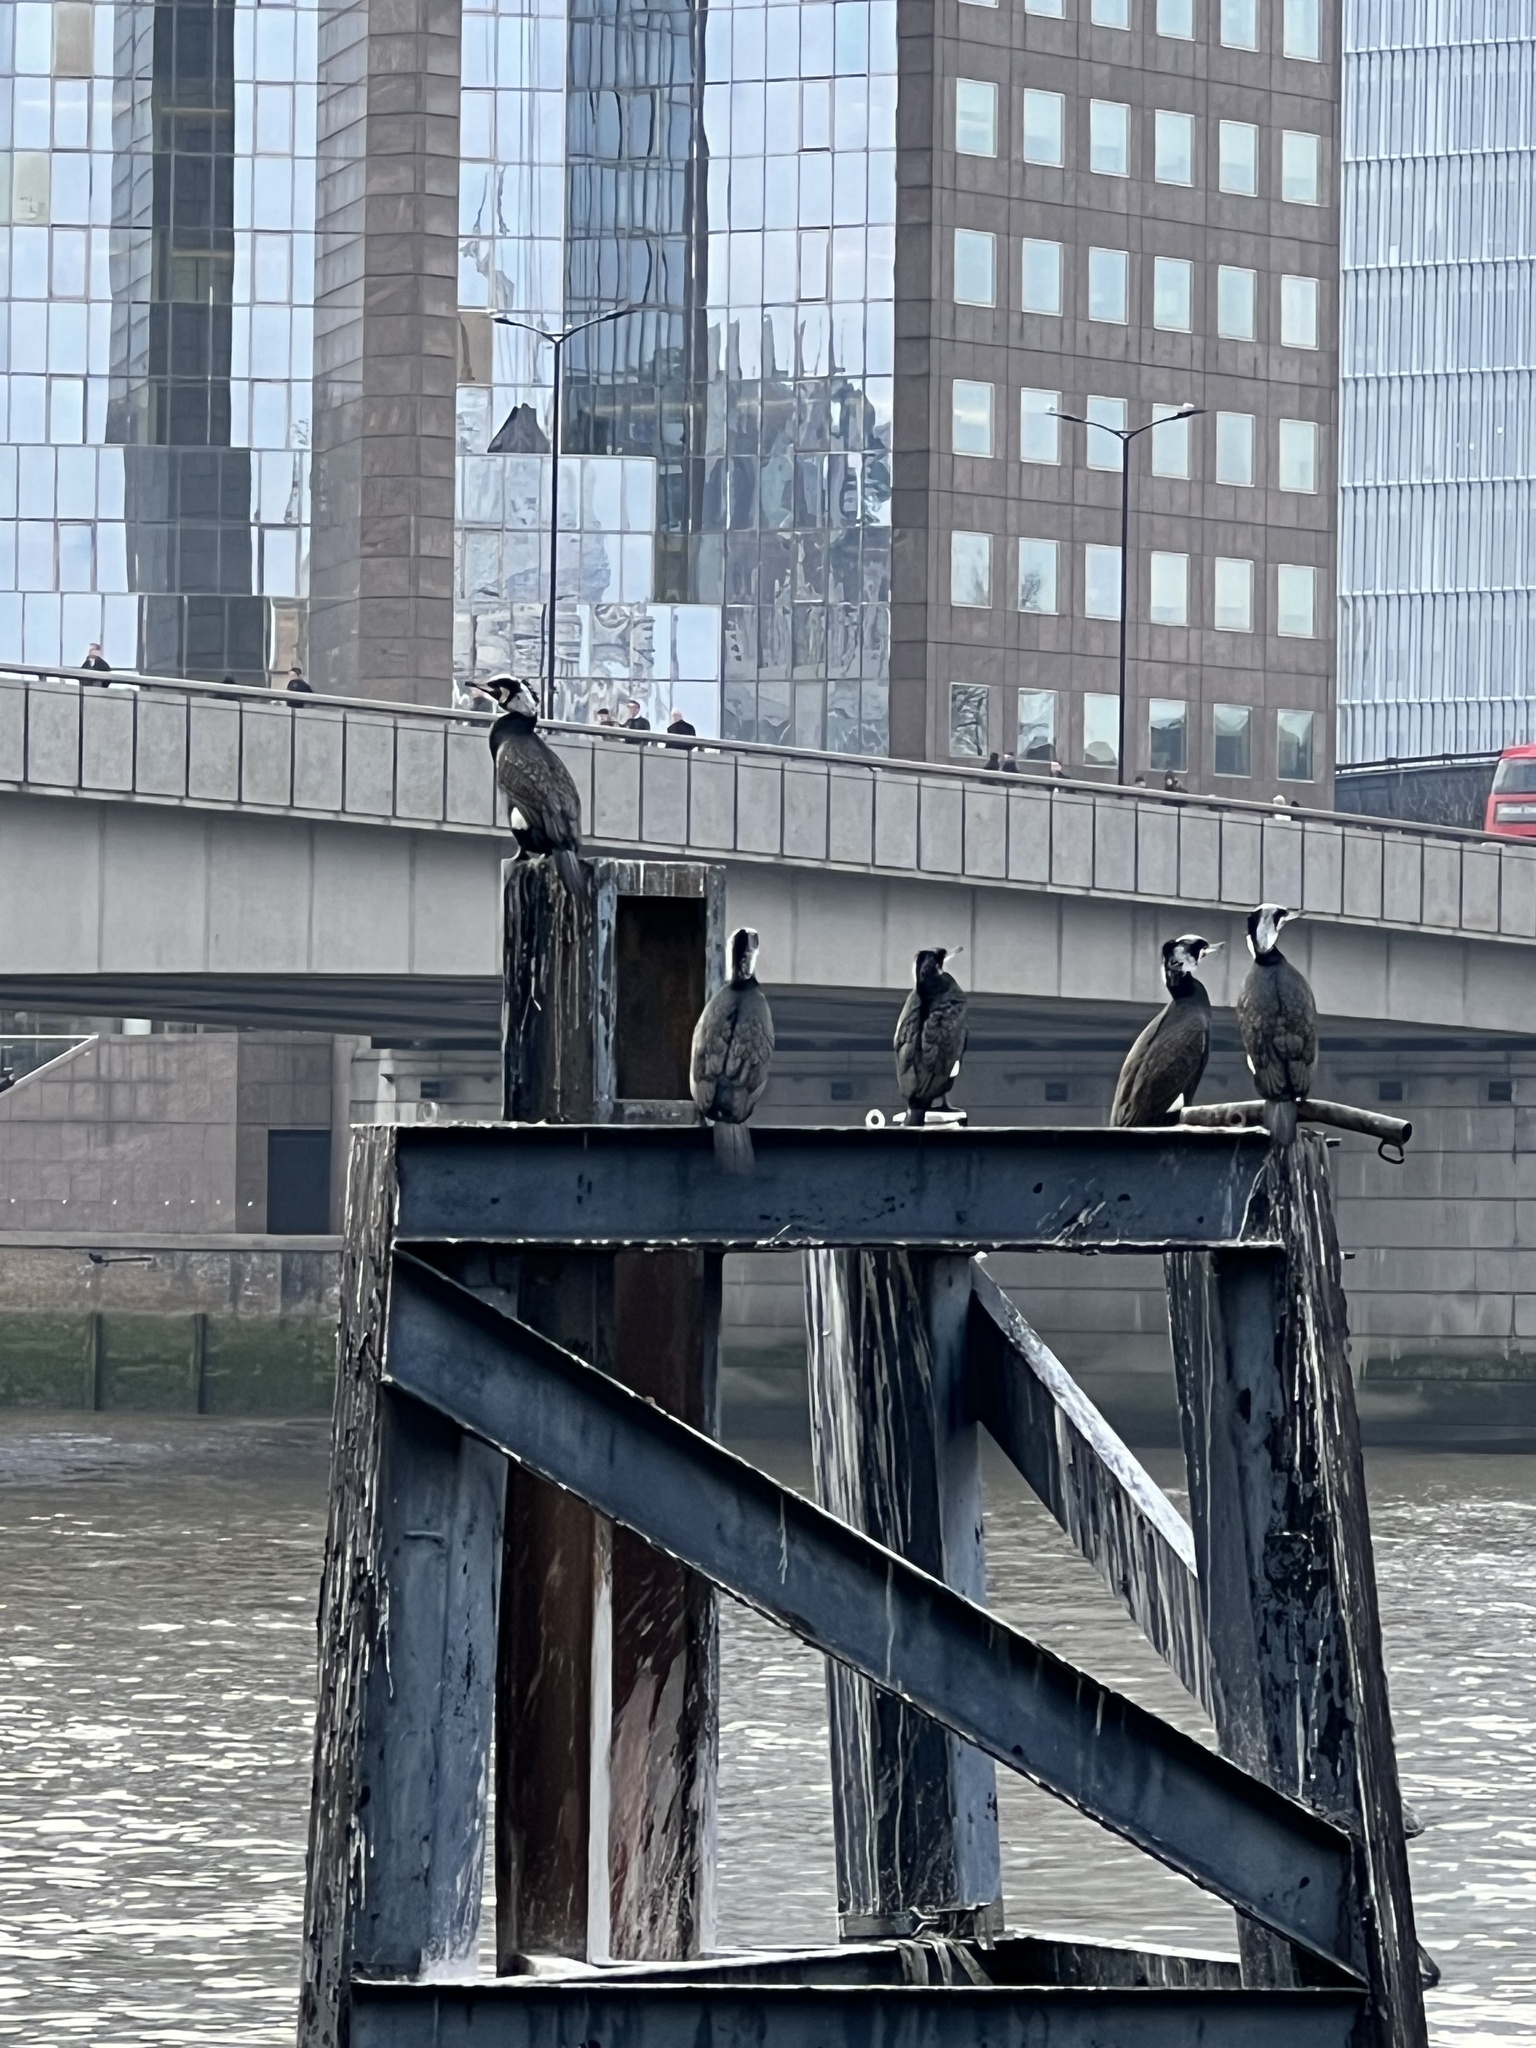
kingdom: Animalia
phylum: Chordata
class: Aves
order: Suliformes
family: Phalacrocoracidae
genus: Phalacrocorax
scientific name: Phalacrocorax carbo
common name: Great cormorant
